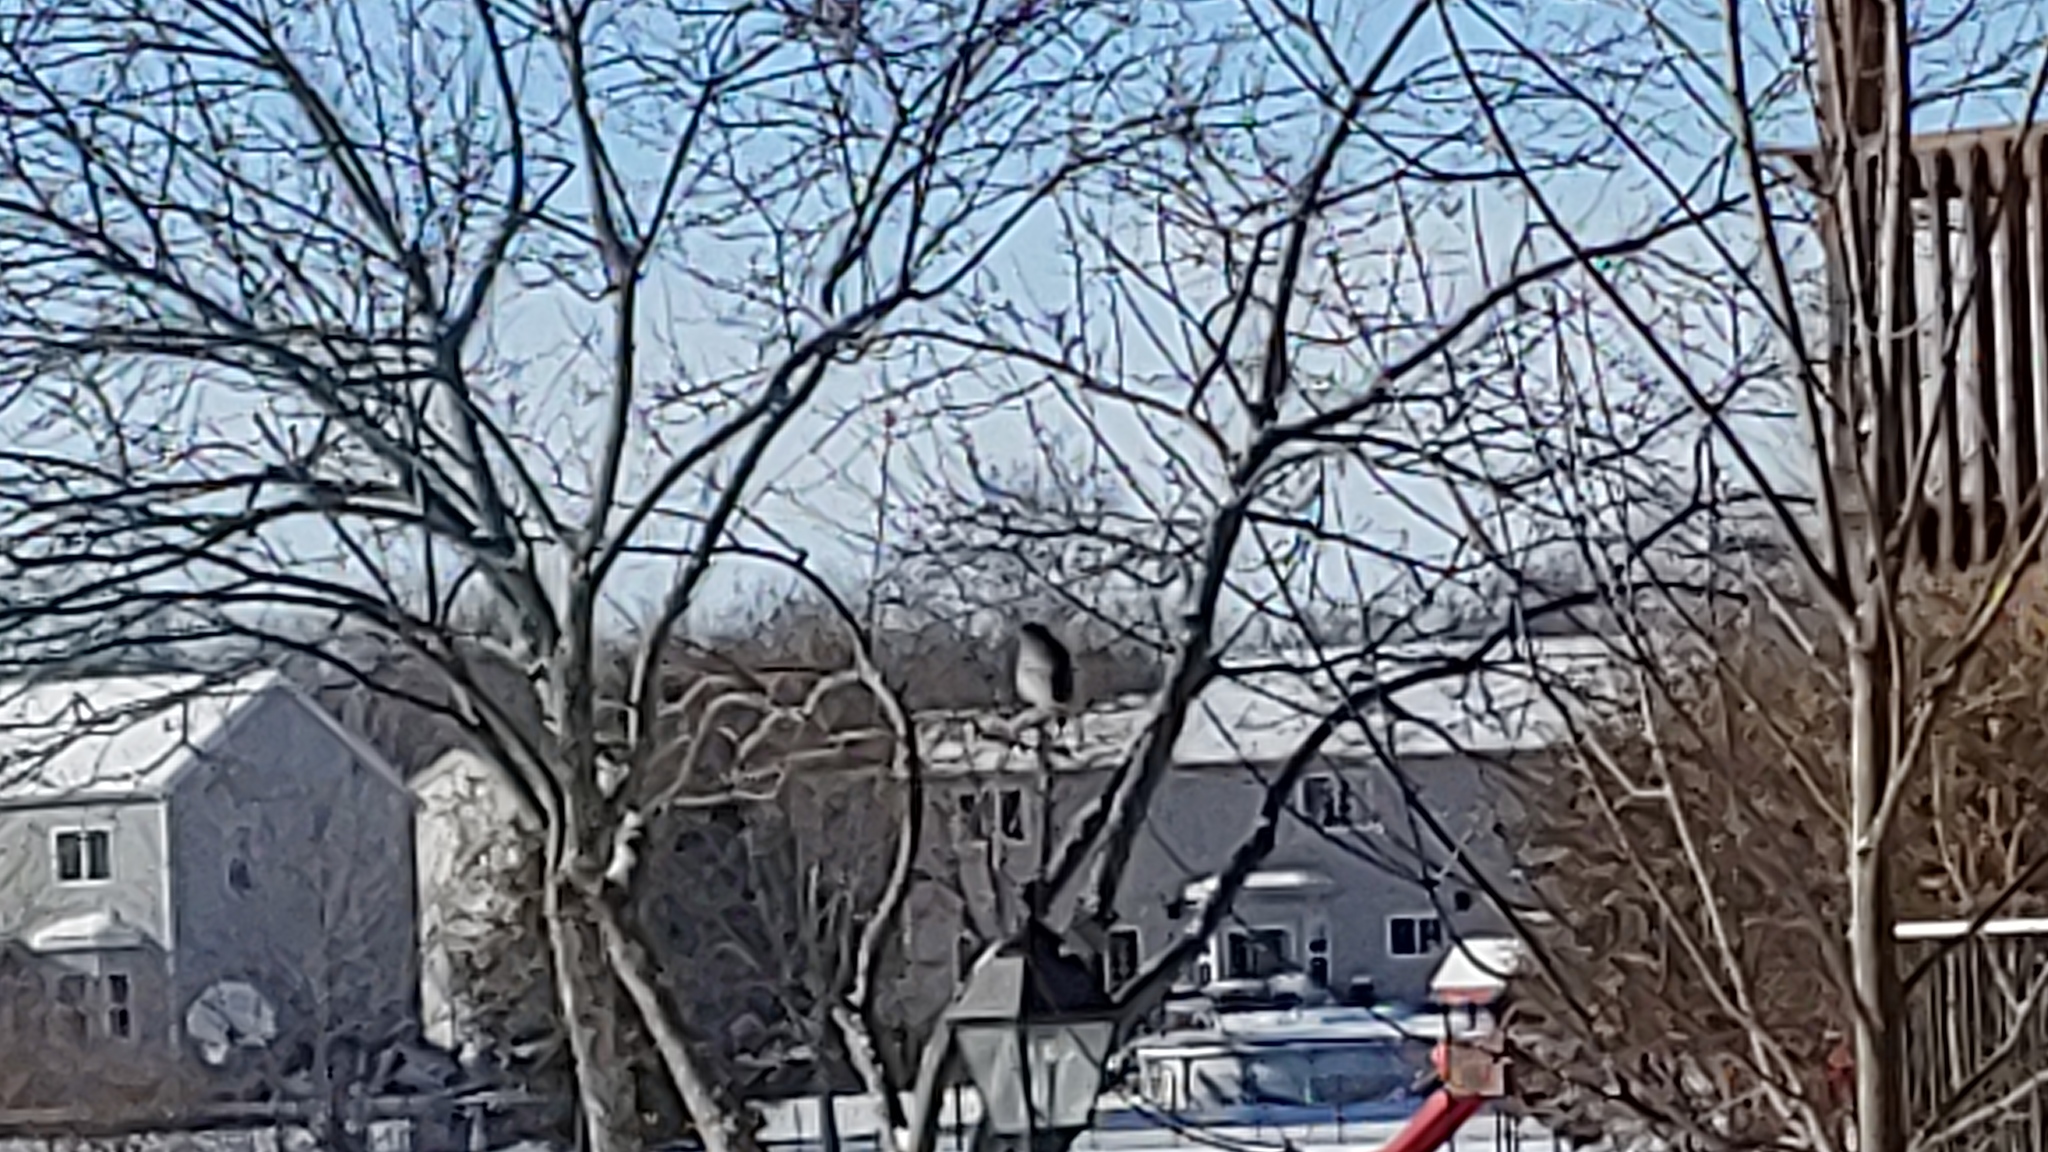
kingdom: Animalia
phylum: Chordata
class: Aves
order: Accipitriformes
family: Accipitridae
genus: Accipiter
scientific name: Accipiter cooperii
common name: Cooper's hawk
